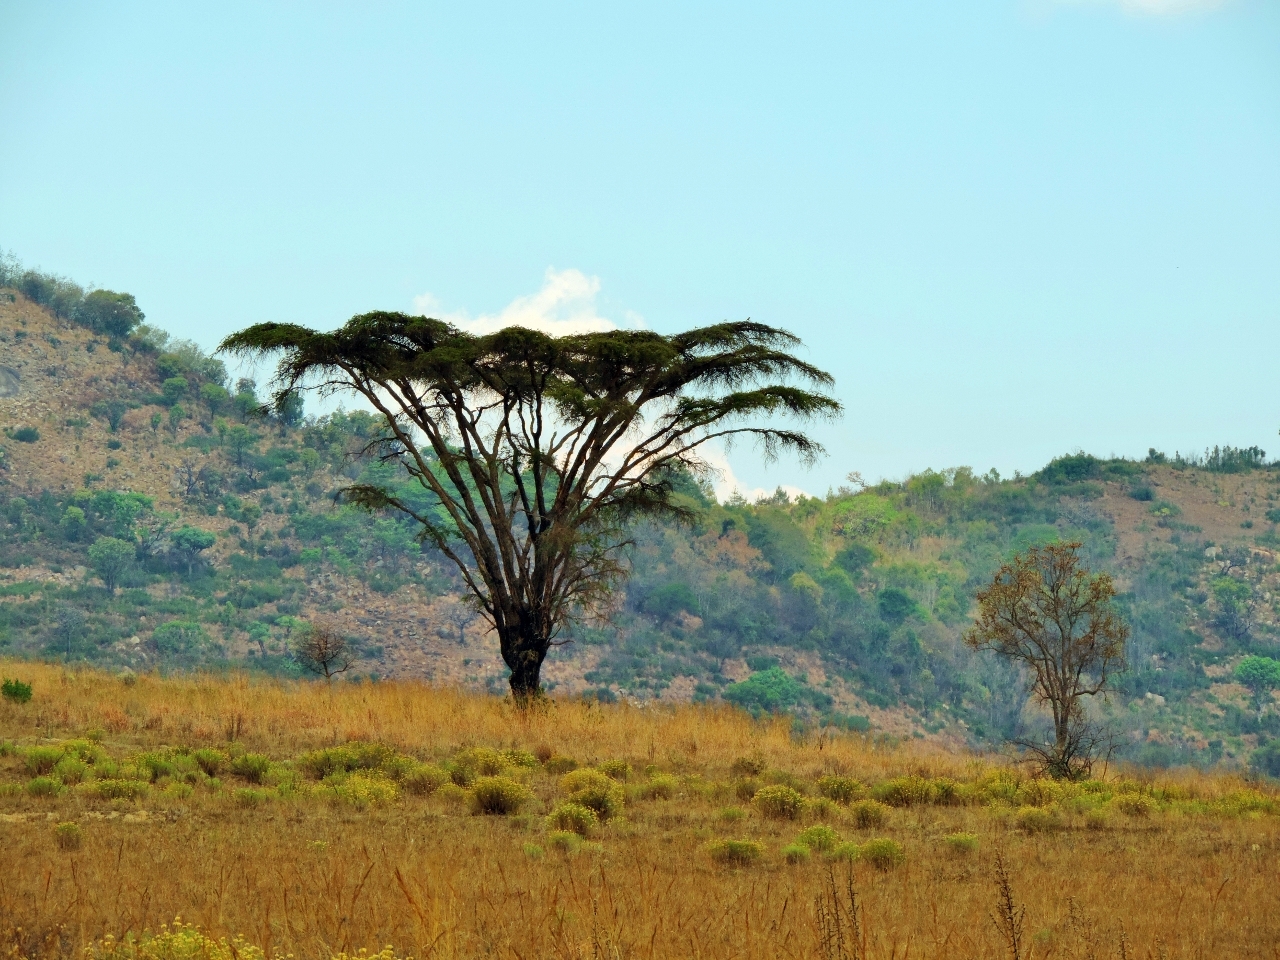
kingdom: Plantae
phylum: Tracheophyta
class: Magnoliopsida
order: Fabales
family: Fabaceae
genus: Vachellia
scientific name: Vachellia abyssinica
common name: Nyanga flat-top
